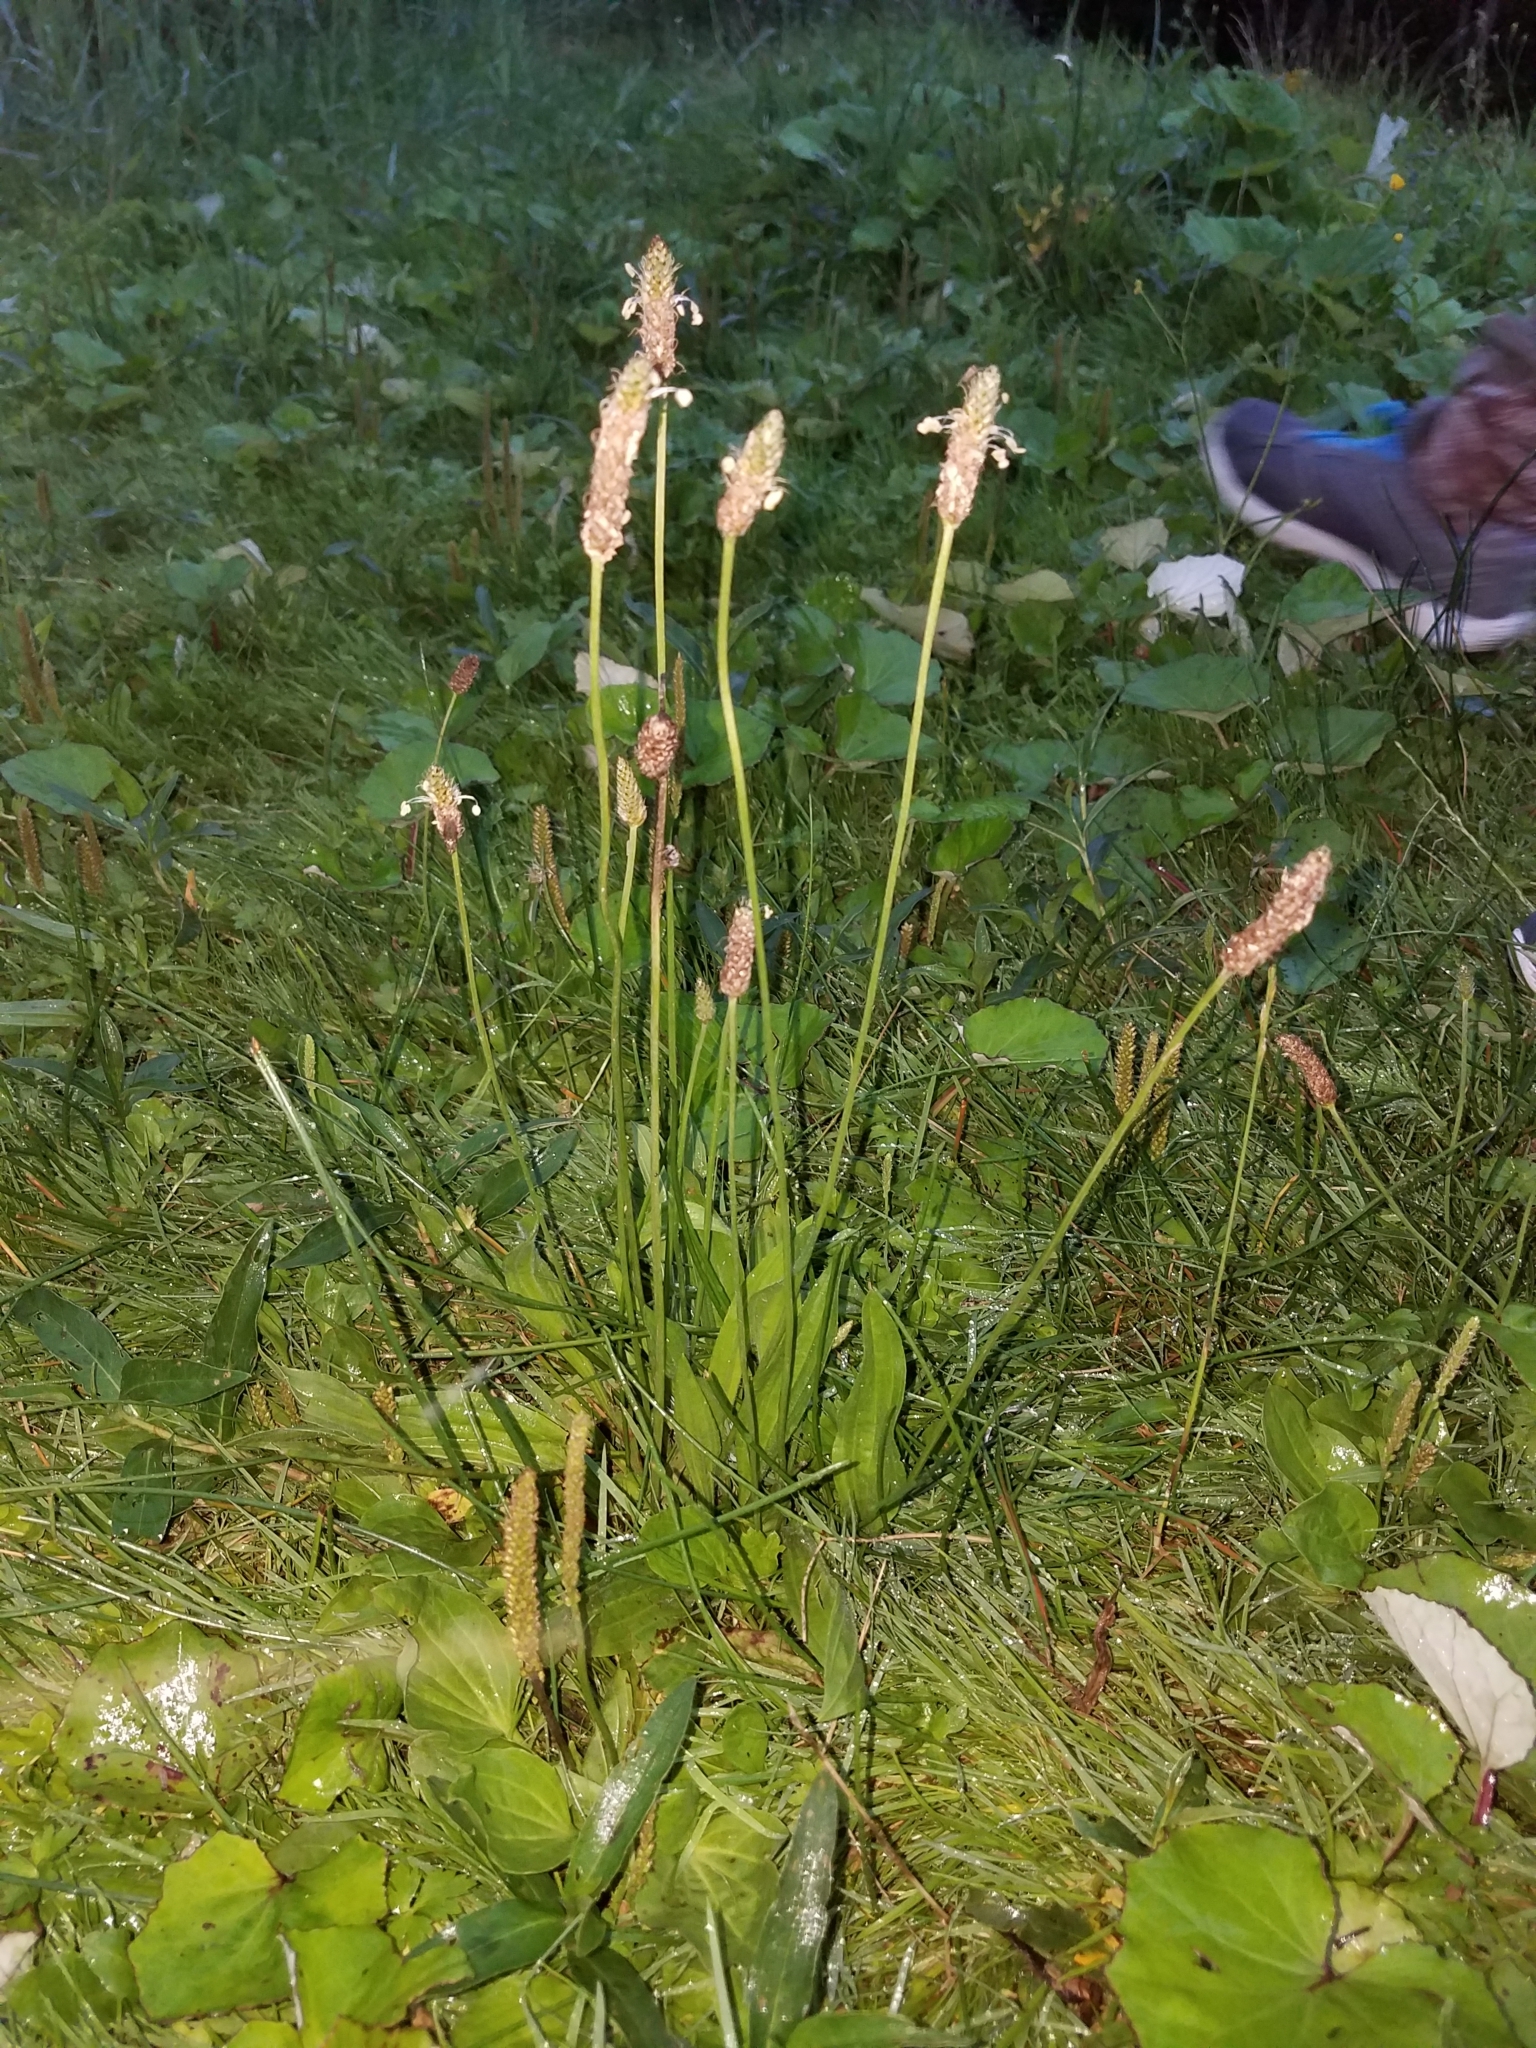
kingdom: Plantae
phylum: Tracheophyta
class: Magnoliopsida
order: Lamiales
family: Plantaginaceae
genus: Plantago
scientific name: Plantago lanceolata
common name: Ribwort plantain
